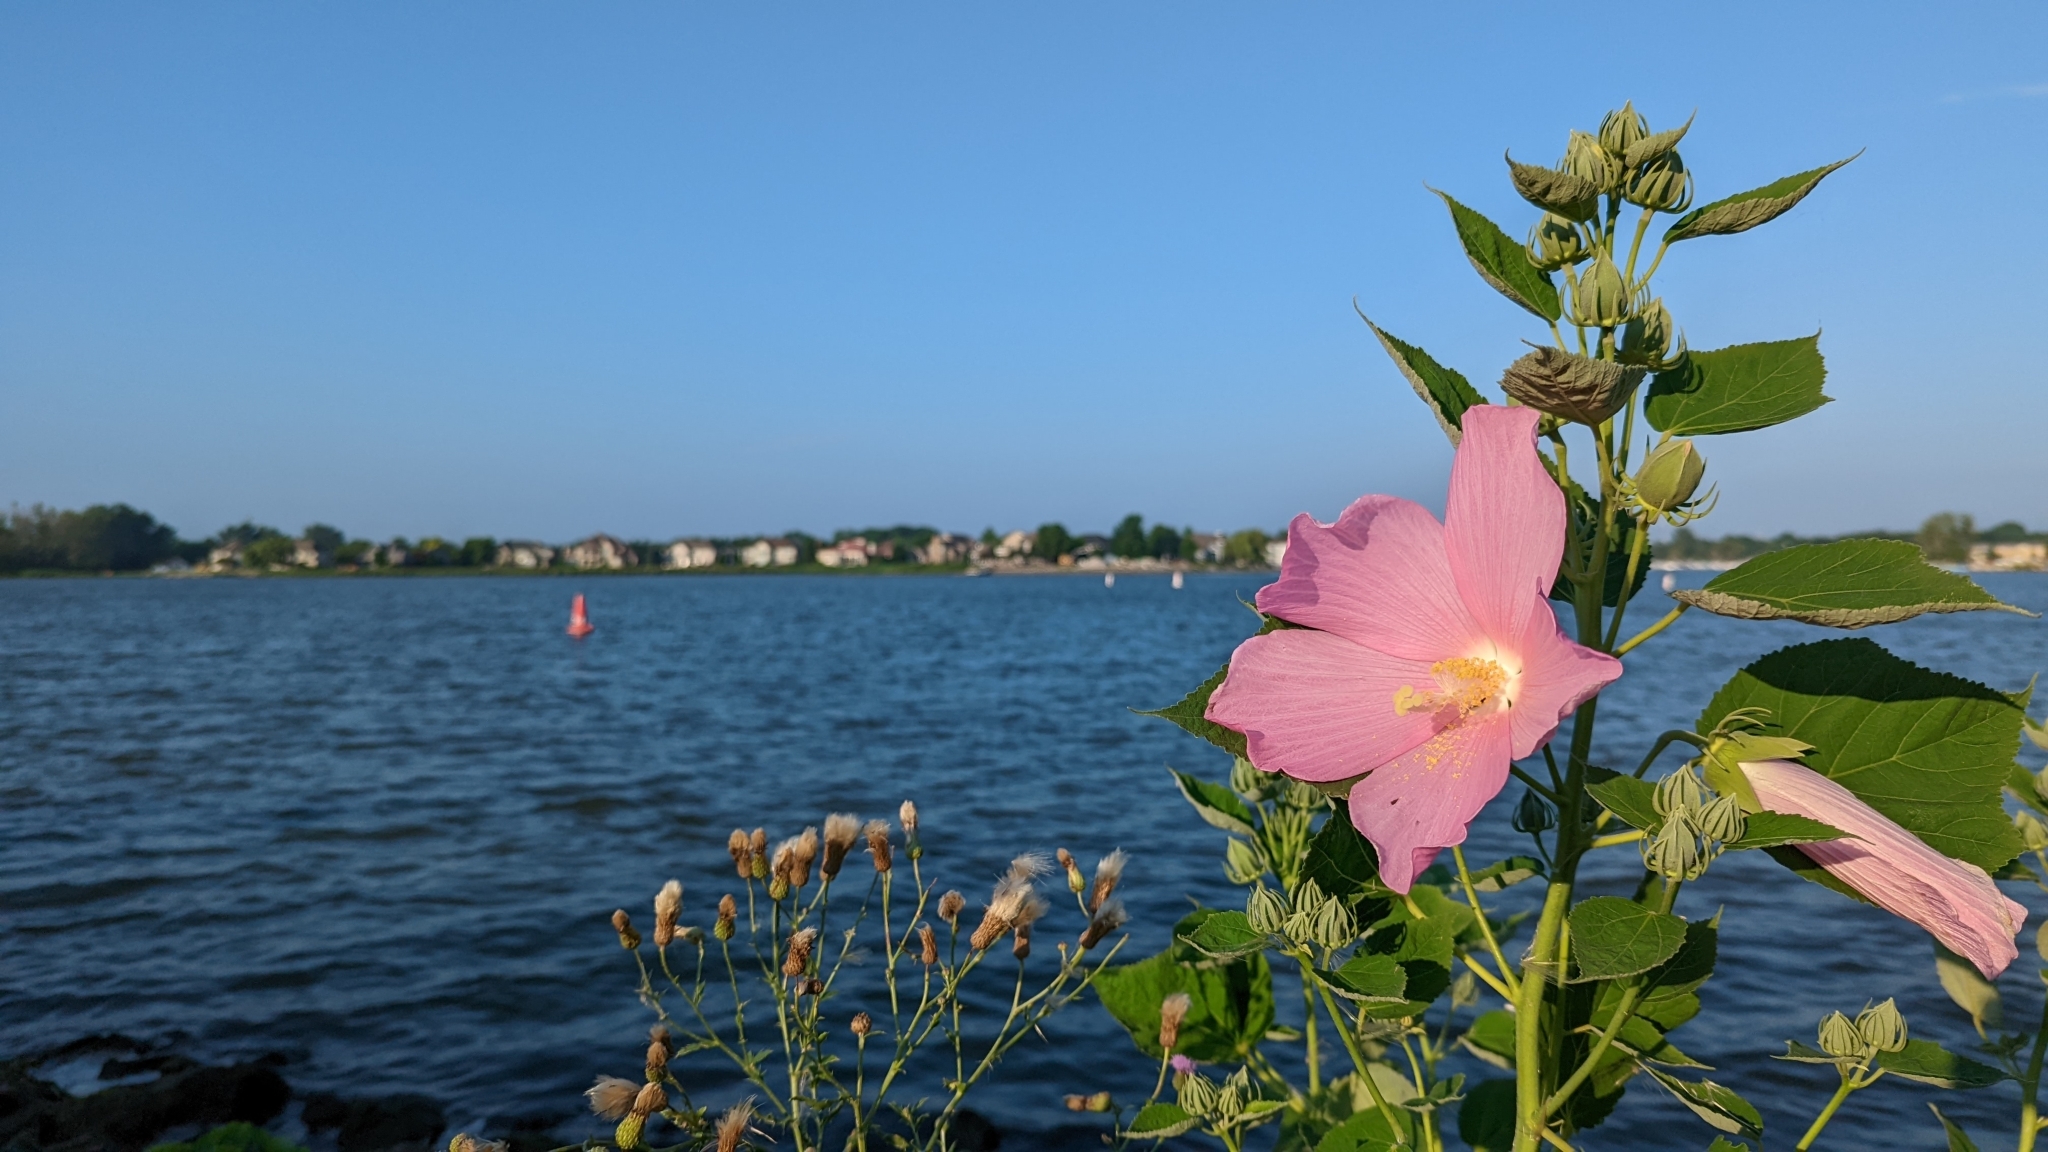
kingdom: Plantae
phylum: Tracheophyta
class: Magnoliopsida
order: Malvales
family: Malvaceae
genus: Hibiscus
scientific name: Hibiscus moscheutos
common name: Common rose-mallow
